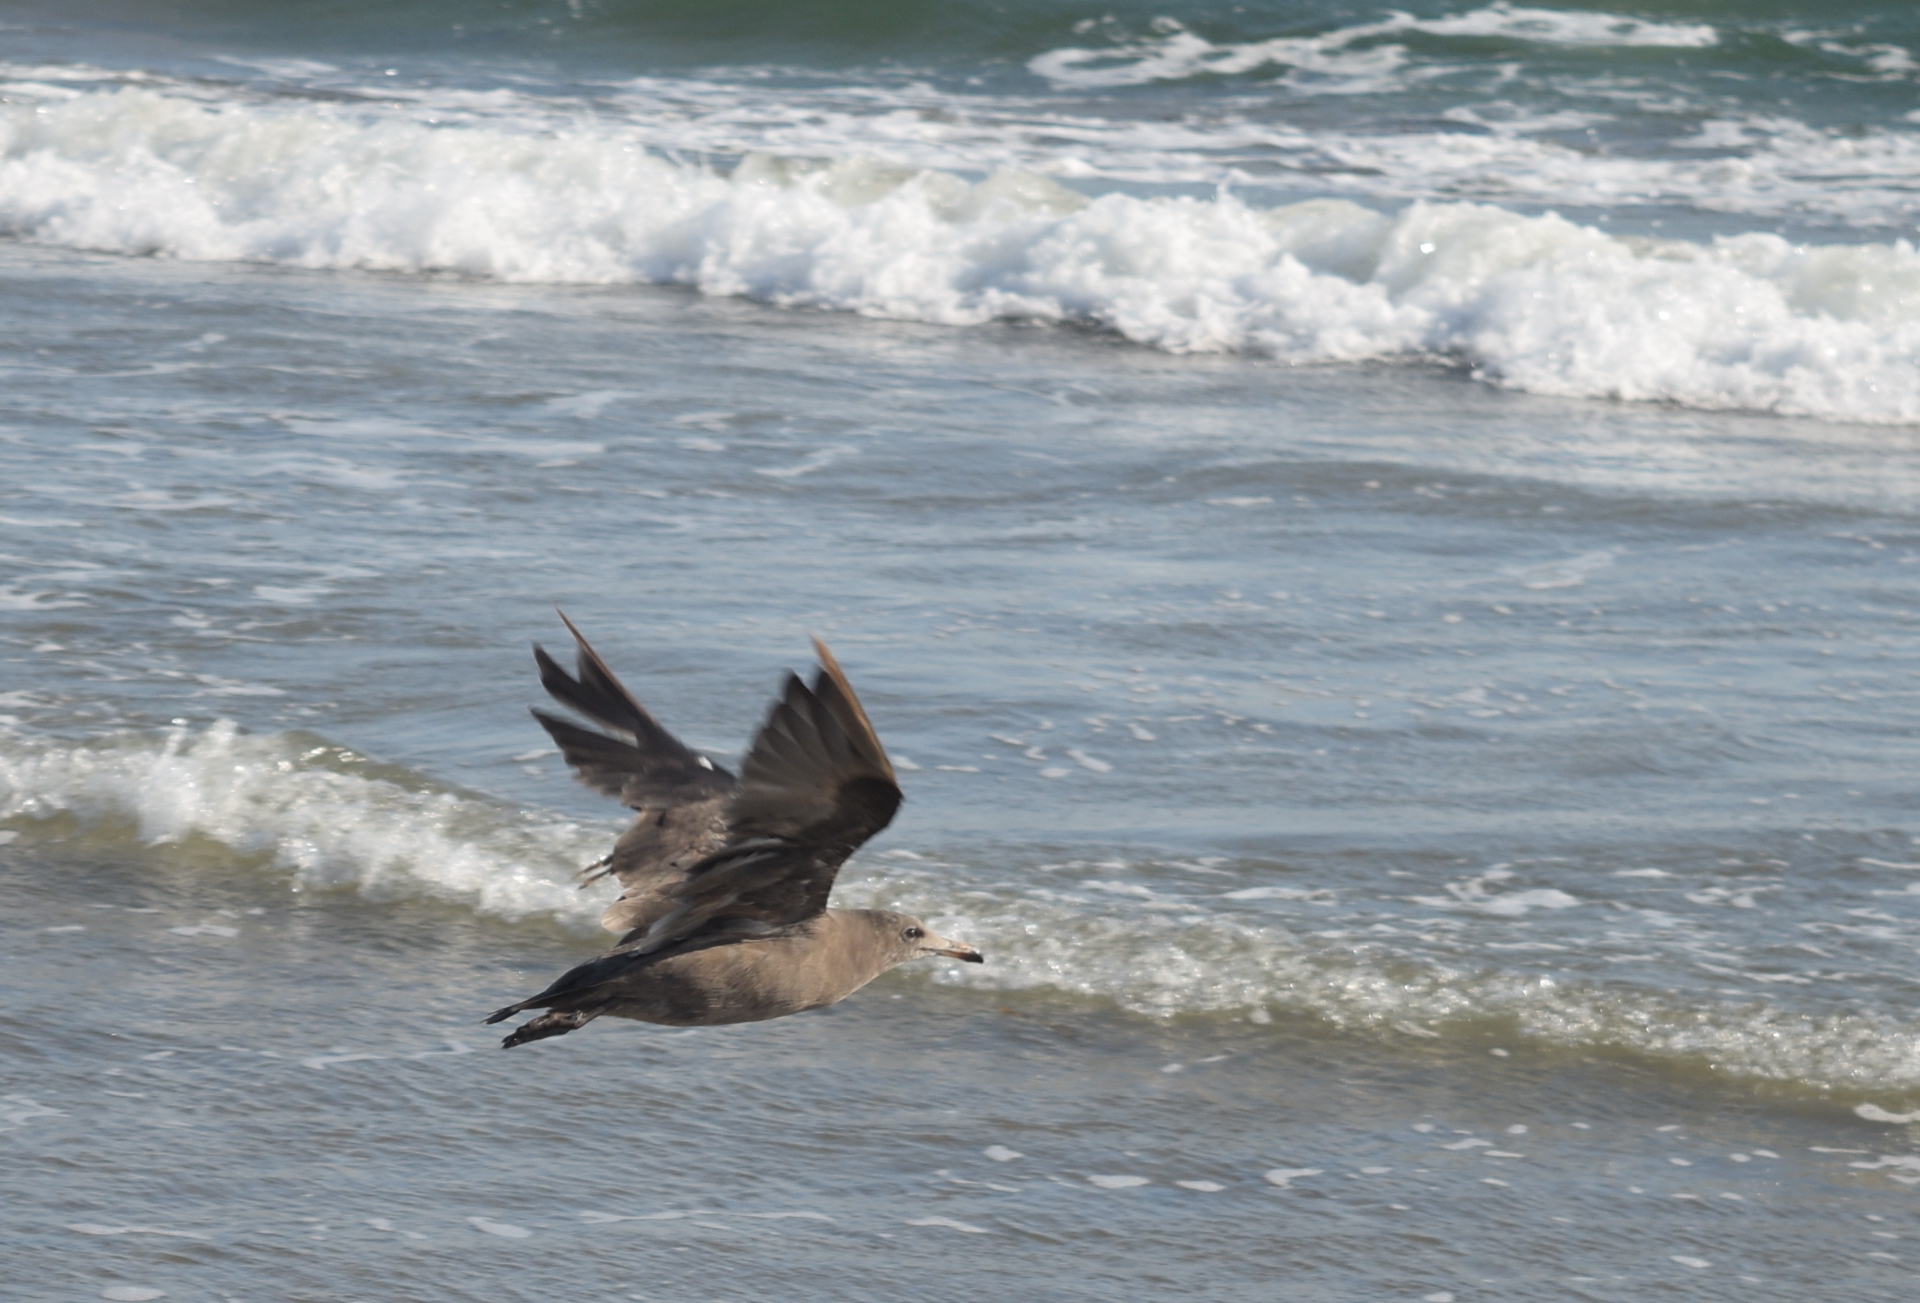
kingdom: Animalia
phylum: Chordata
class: Aves
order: Charadriiformes
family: Laridae
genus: Larus
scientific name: Larus heermanni
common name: Heermann's gull
